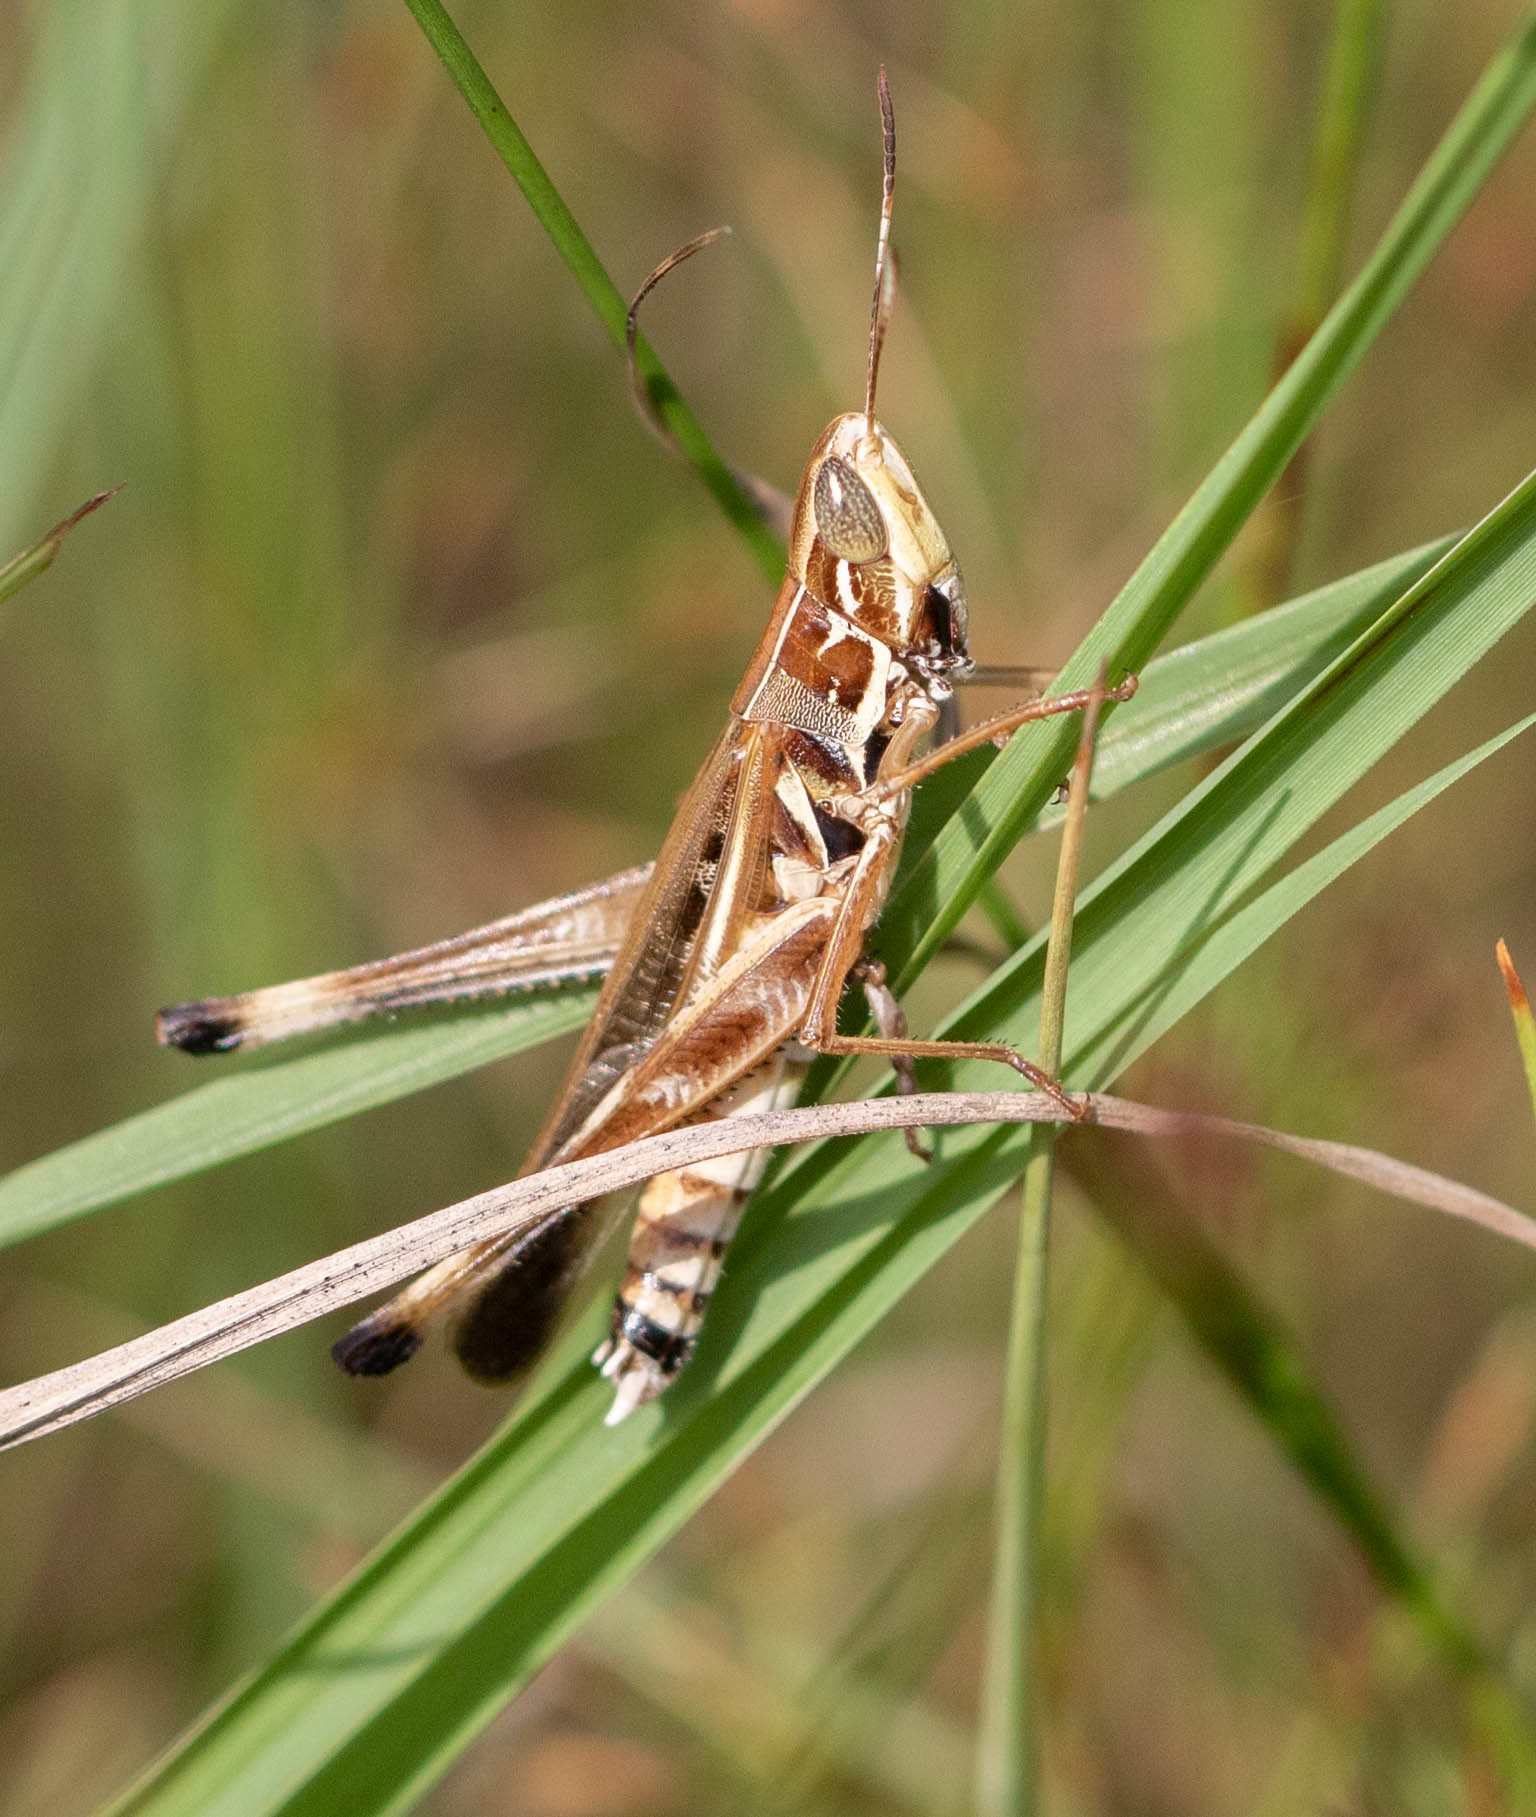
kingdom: Animalia
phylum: Arthropoda
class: Insecta
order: Orthoptera
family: Acrididae
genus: Syrbula
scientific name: Syrbula admirabilis
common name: Handsome grasshopper
